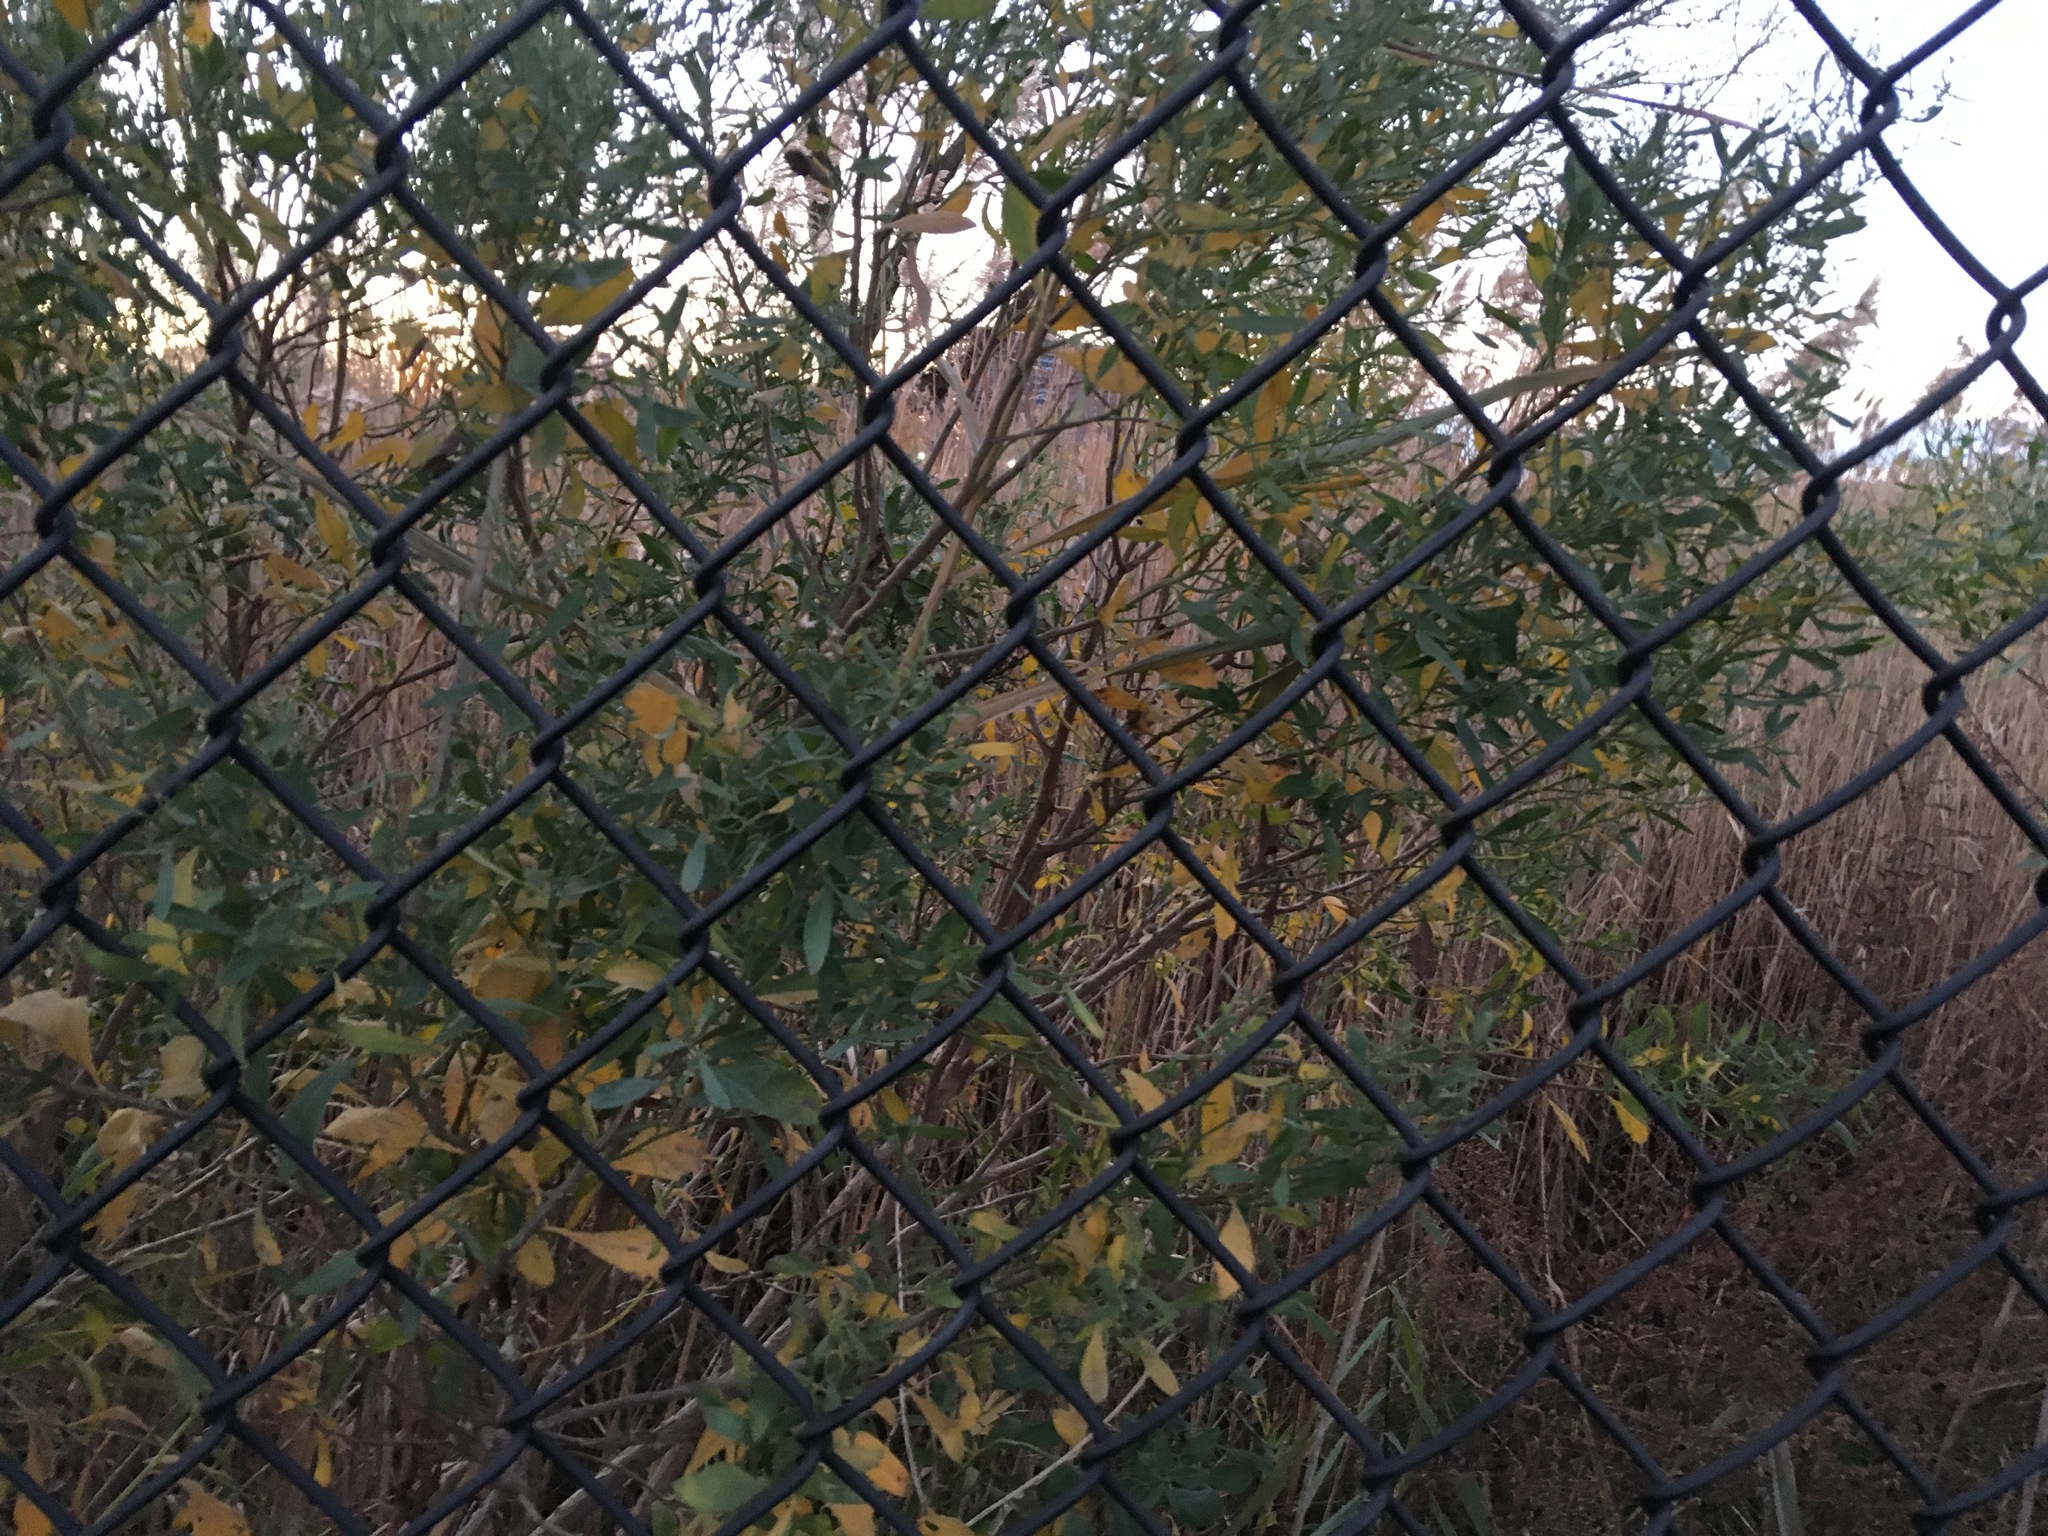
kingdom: Plantae
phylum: Tracheophyta
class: Magnoliopsida
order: Asterales
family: Asteraceae
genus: Baccharis
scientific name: Baccharis halimifolia
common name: Eastern baccharis
